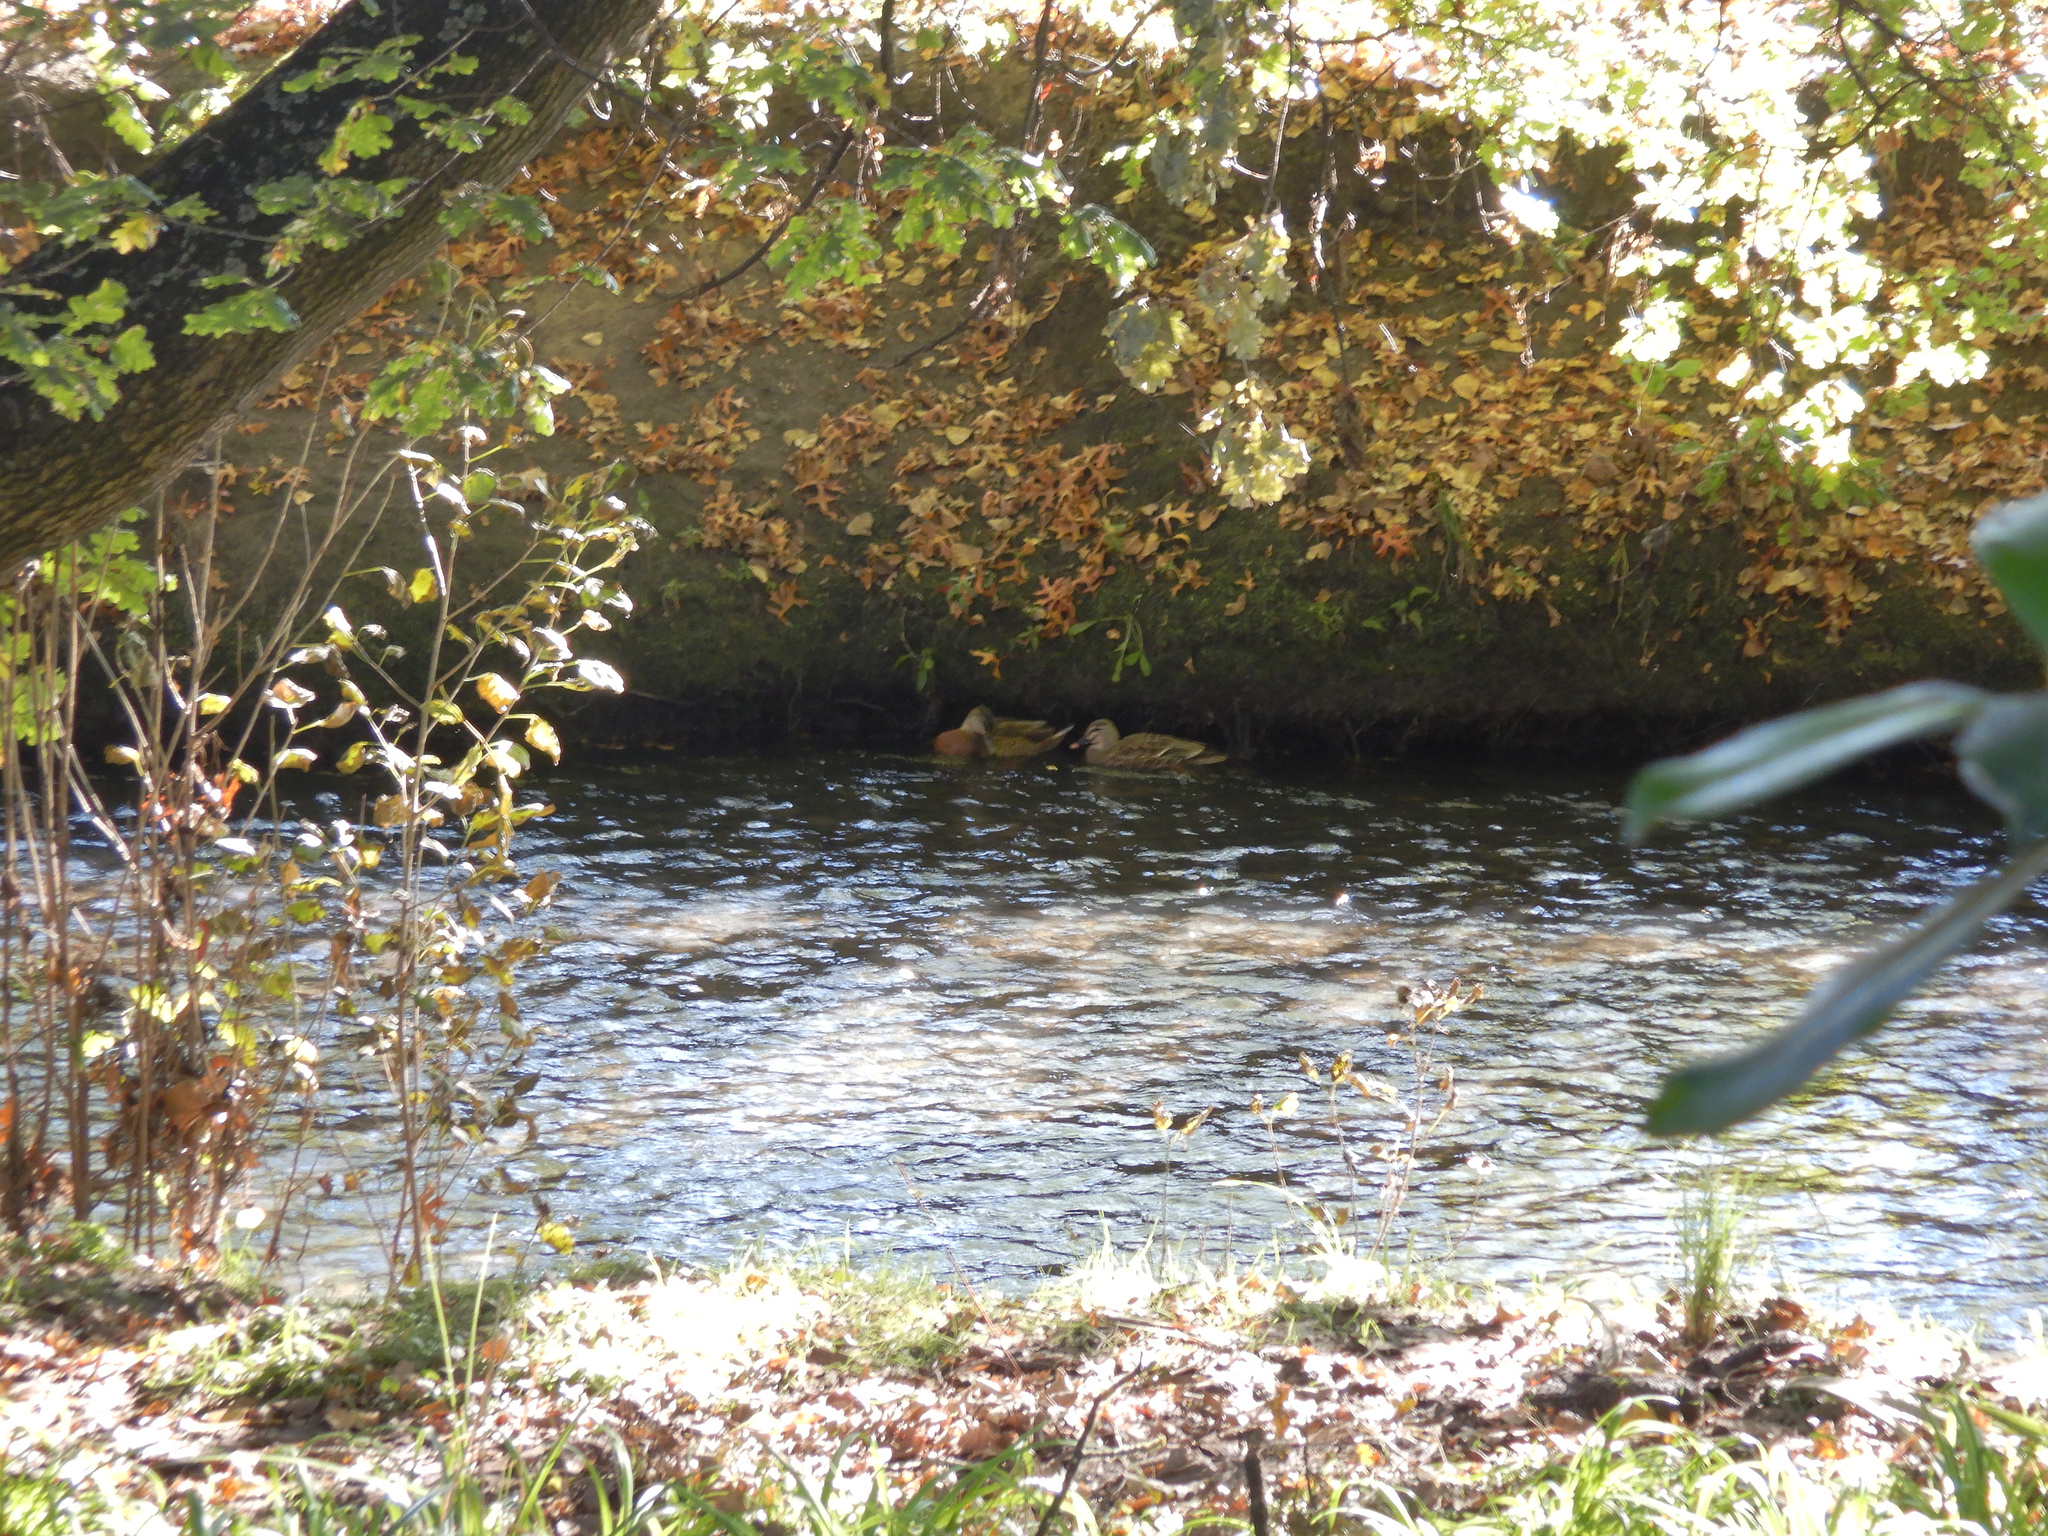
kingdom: Animalia
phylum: Chordata
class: Aves
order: Anseriformes
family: Anatidae
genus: Anas
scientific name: Anas
